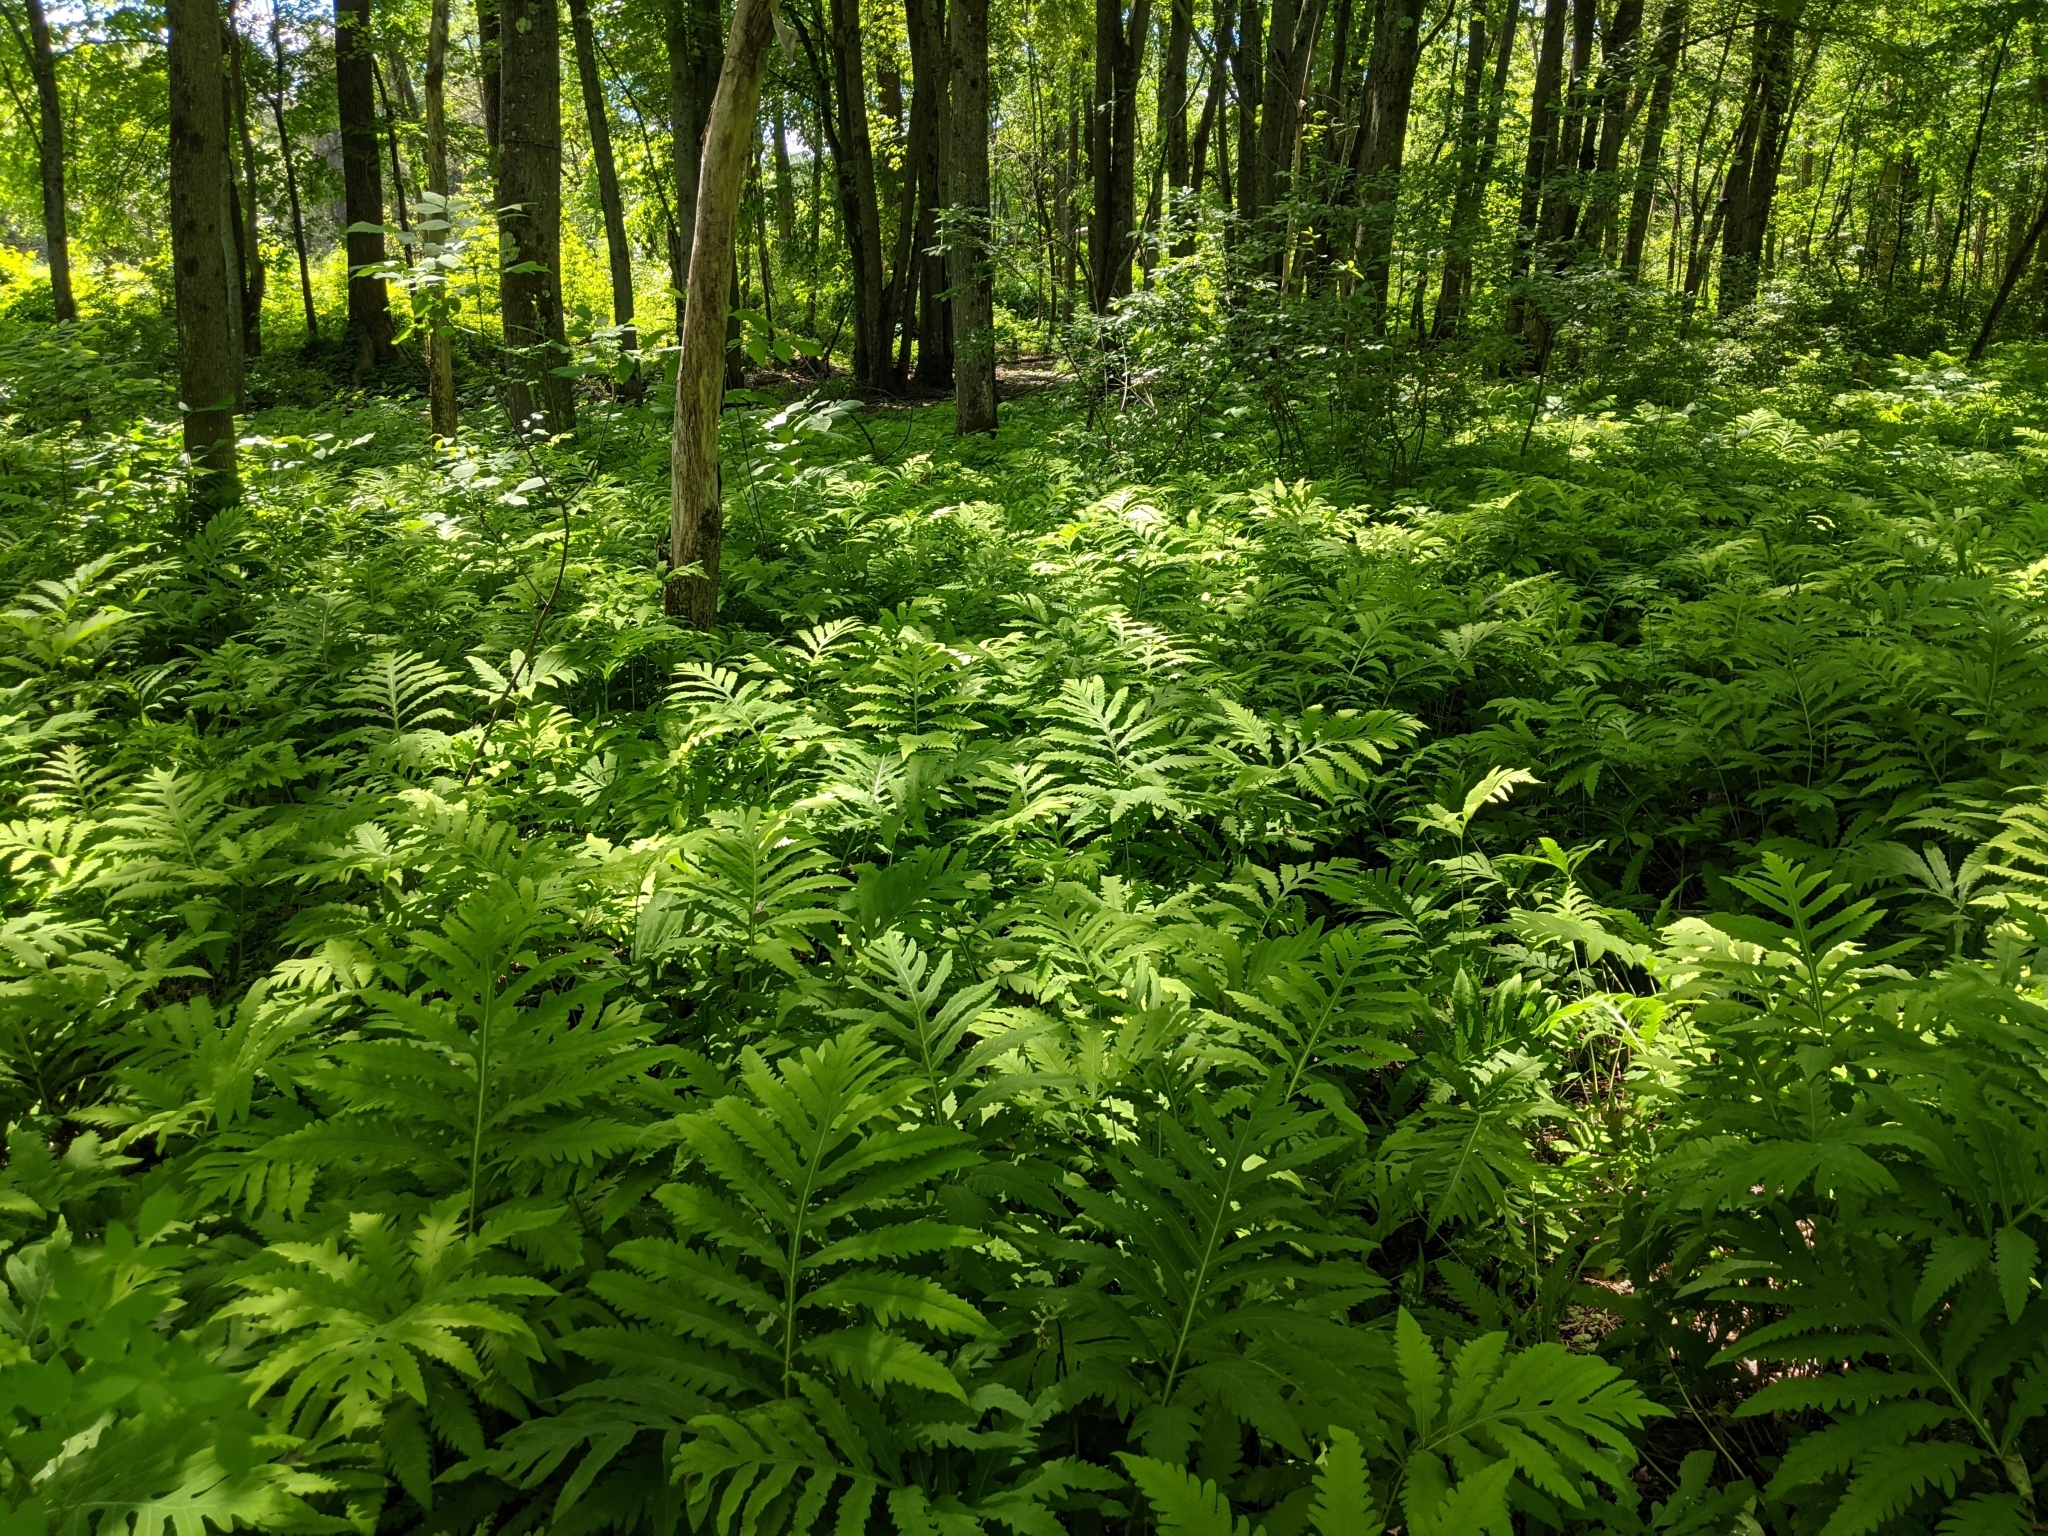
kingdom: Plantae
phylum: Tracheophyta
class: Polypodiopsida
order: Polypodiales
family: Onocleaceae
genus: Onoclea
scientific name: Onoclea sensibilis
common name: Sensitive fern
